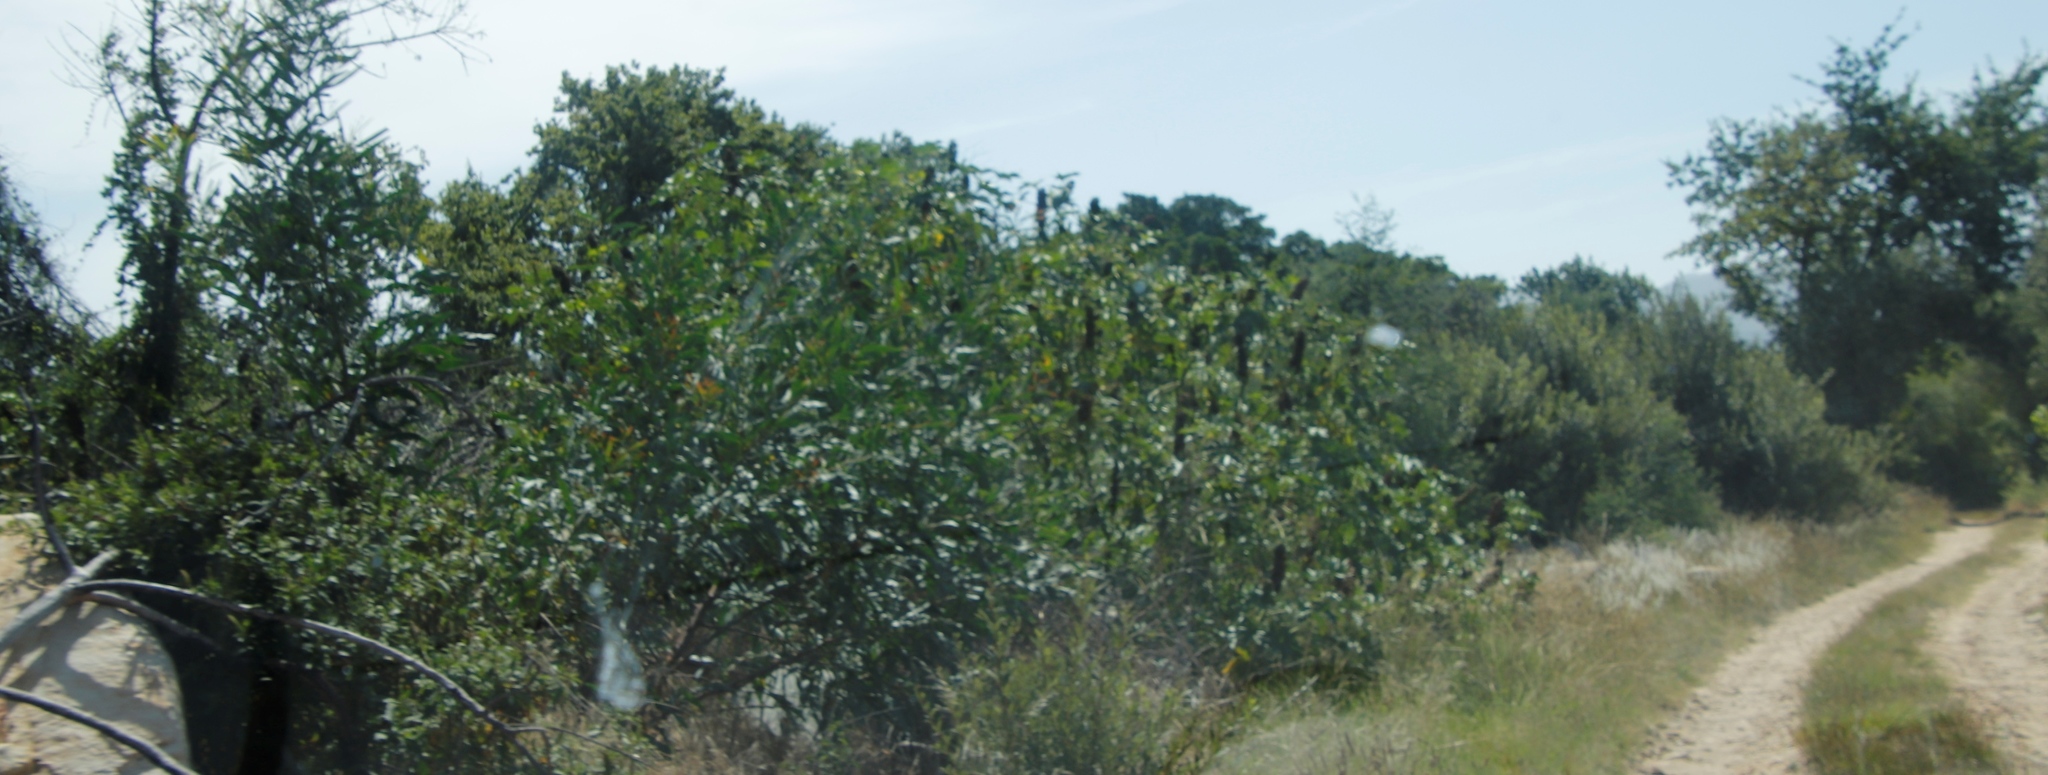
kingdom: Plantae
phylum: Tracheophyta
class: Magnoliopsida
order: Malpighiales
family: Euphorbiaceae
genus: Ricinus
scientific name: Ricinus communis
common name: Castor-oil-plant
